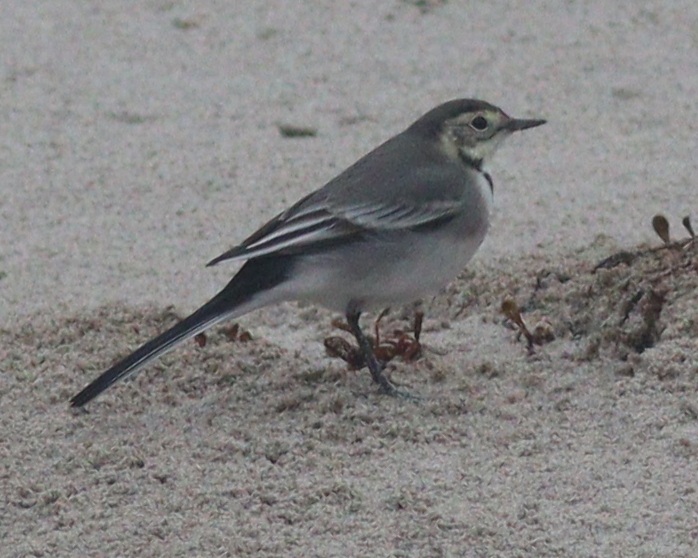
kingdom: Animalia
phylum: Chordata
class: Aves
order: Passeriformes
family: Motacillidae
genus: Motacilla
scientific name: Motacilla alba
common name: White wagtail
